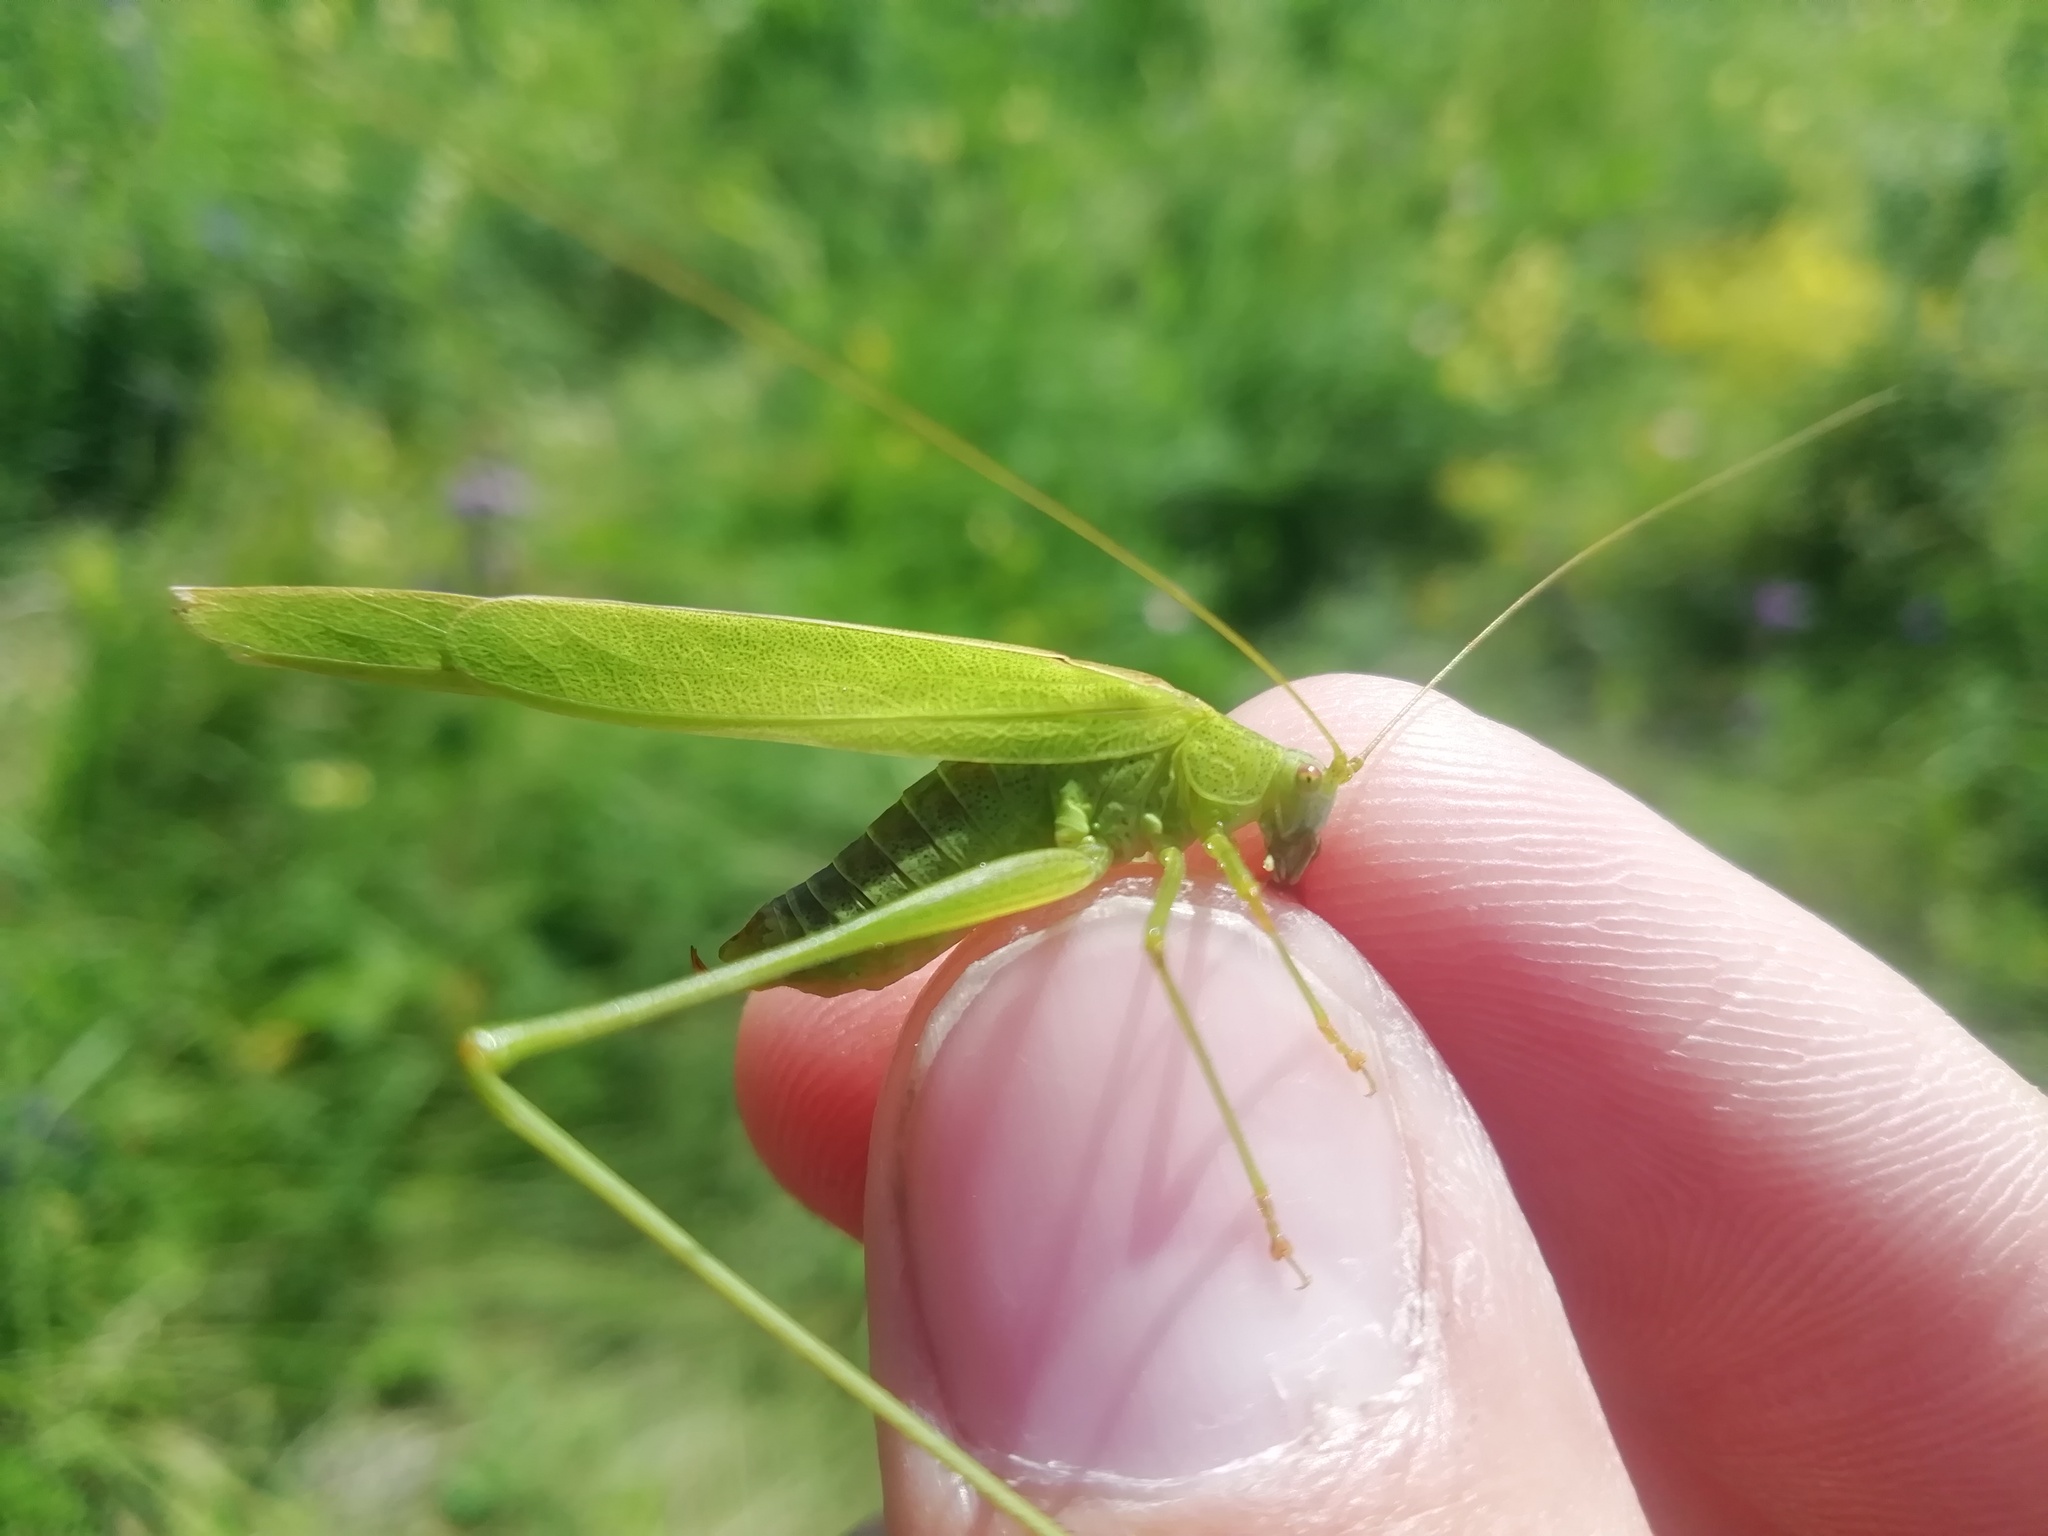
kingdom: Animalia
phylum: Arthropoda
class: Insecta
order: Orthoptera
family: Tettigoniidae
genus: Phaneroptera
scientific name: Phaneroptera falcata
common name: Sickle-bearing bush-cricket
